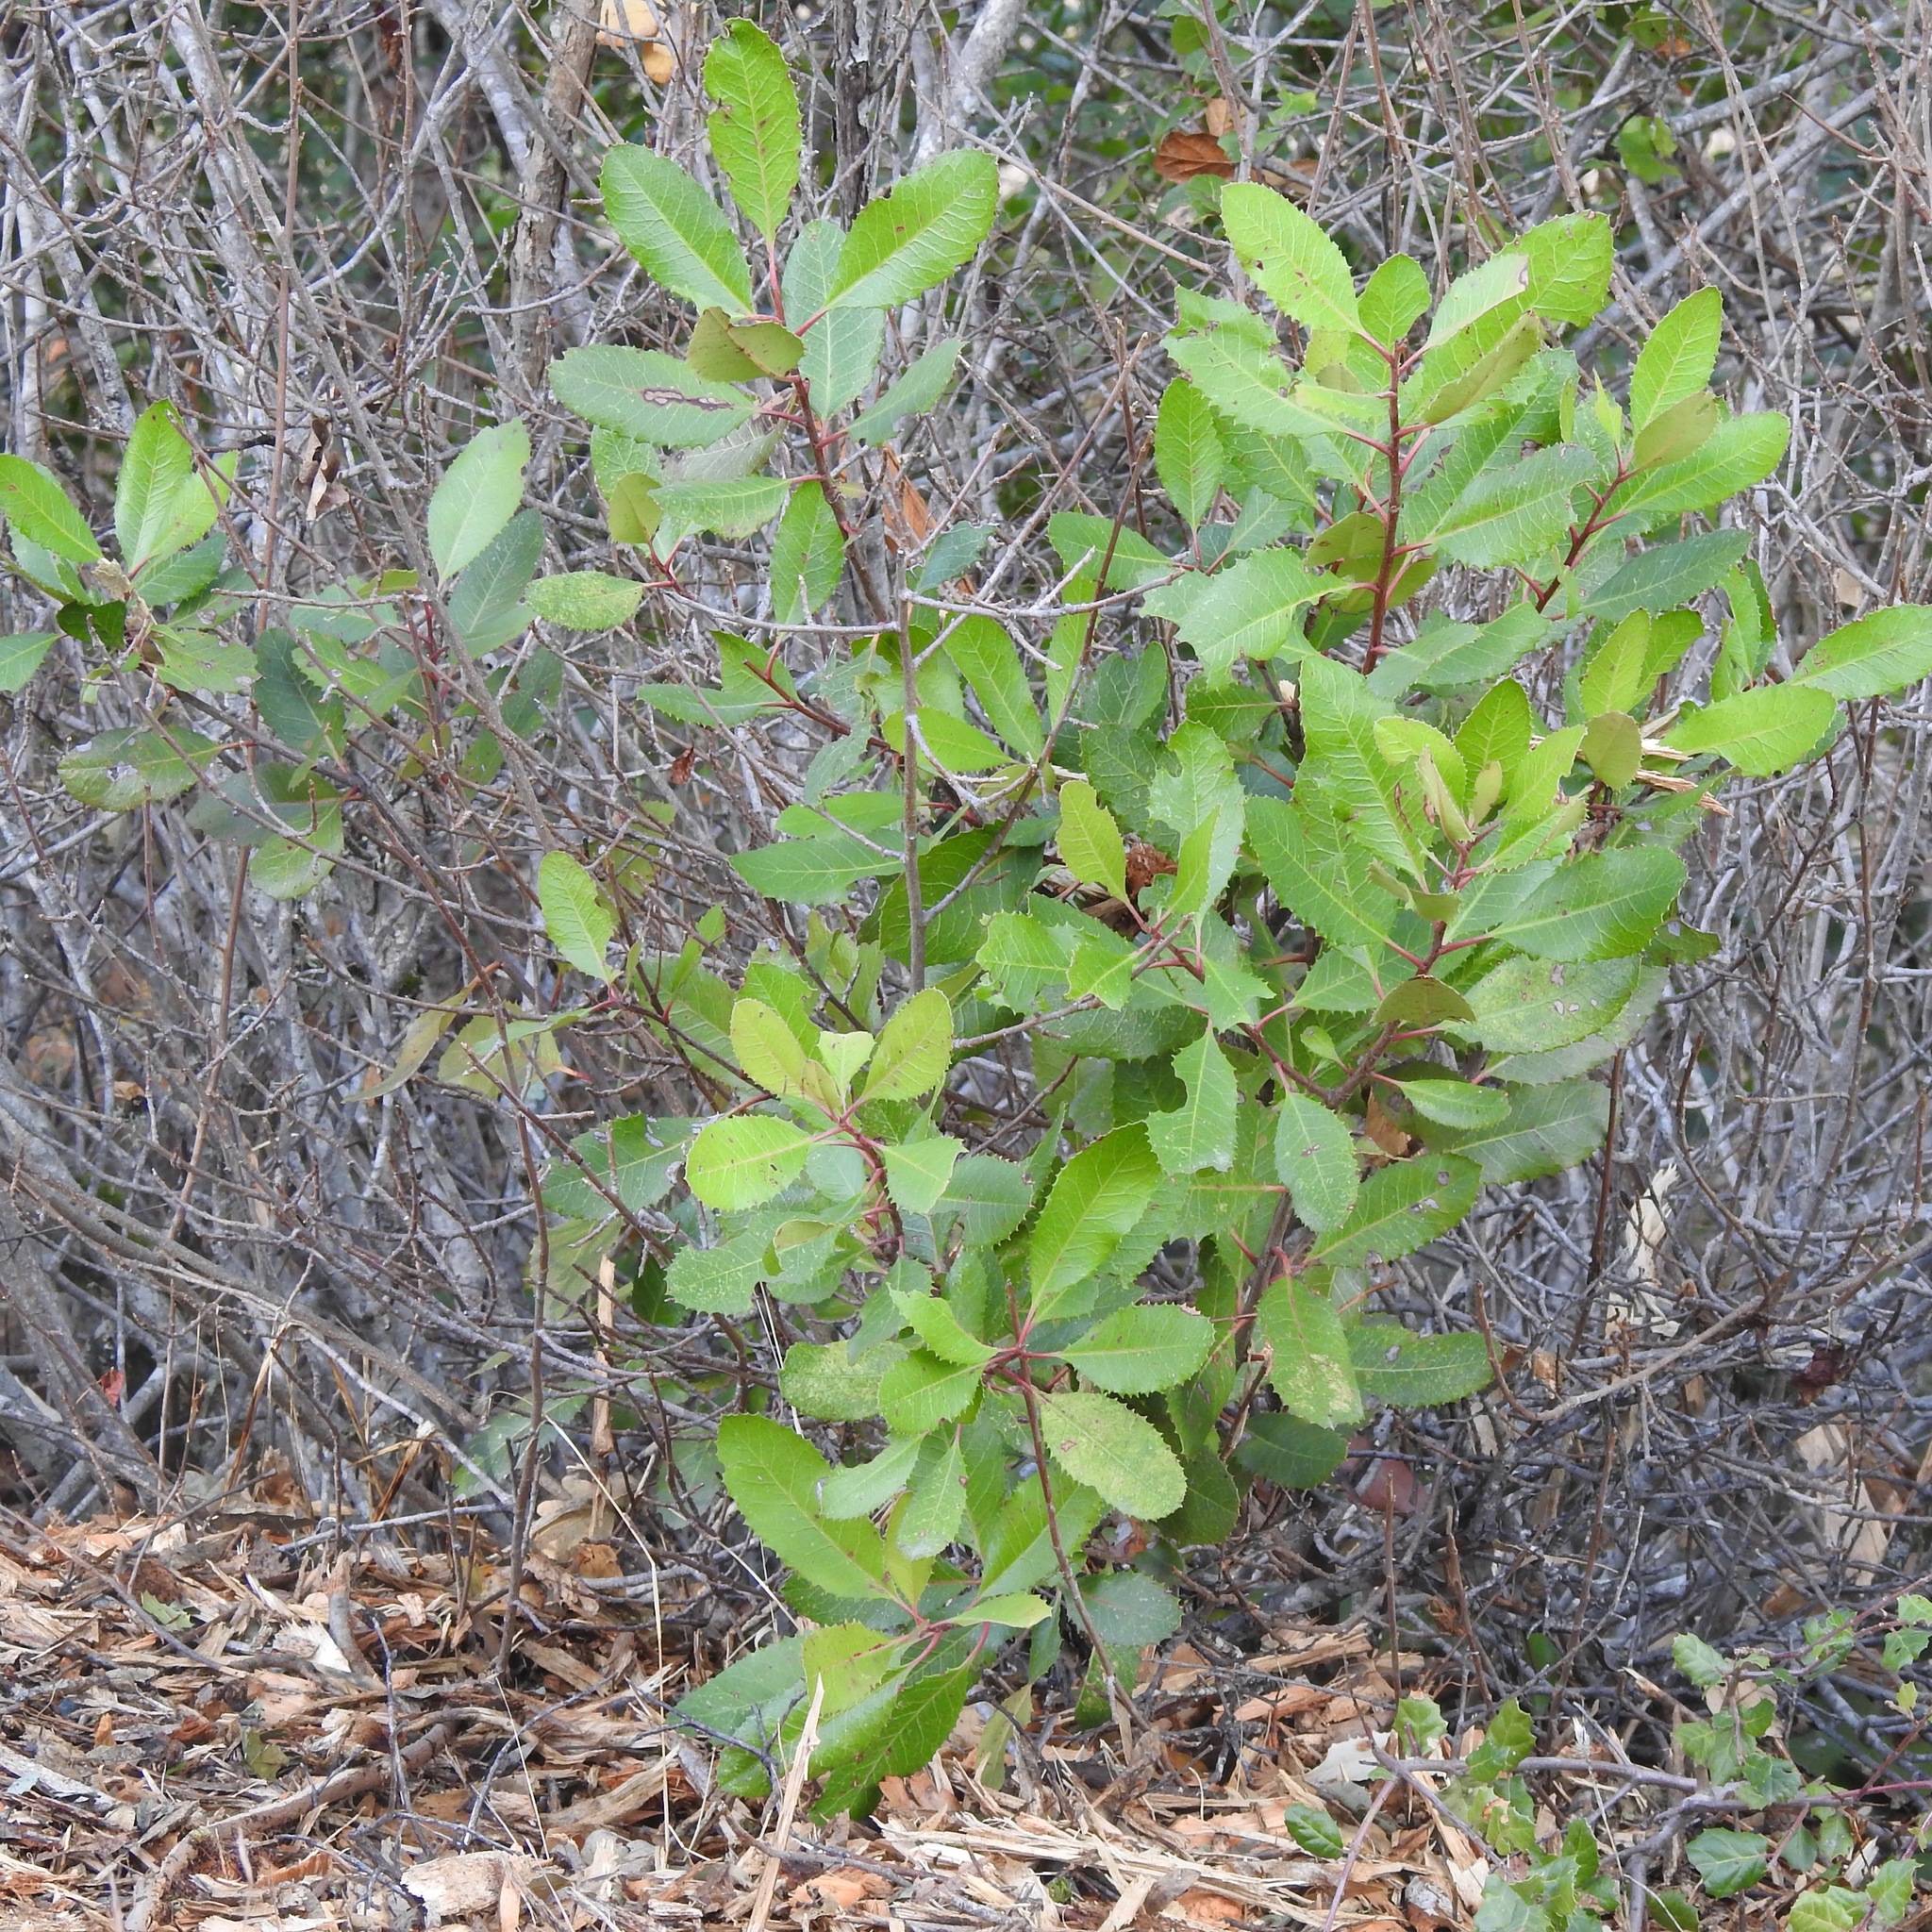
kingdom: Plantae
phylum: Tracheophyta
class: Magnoliopsida
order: Rosales
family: Rosaceae
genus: Heteromeles
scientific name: Heteromeles arbutifolia
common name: California-holly
